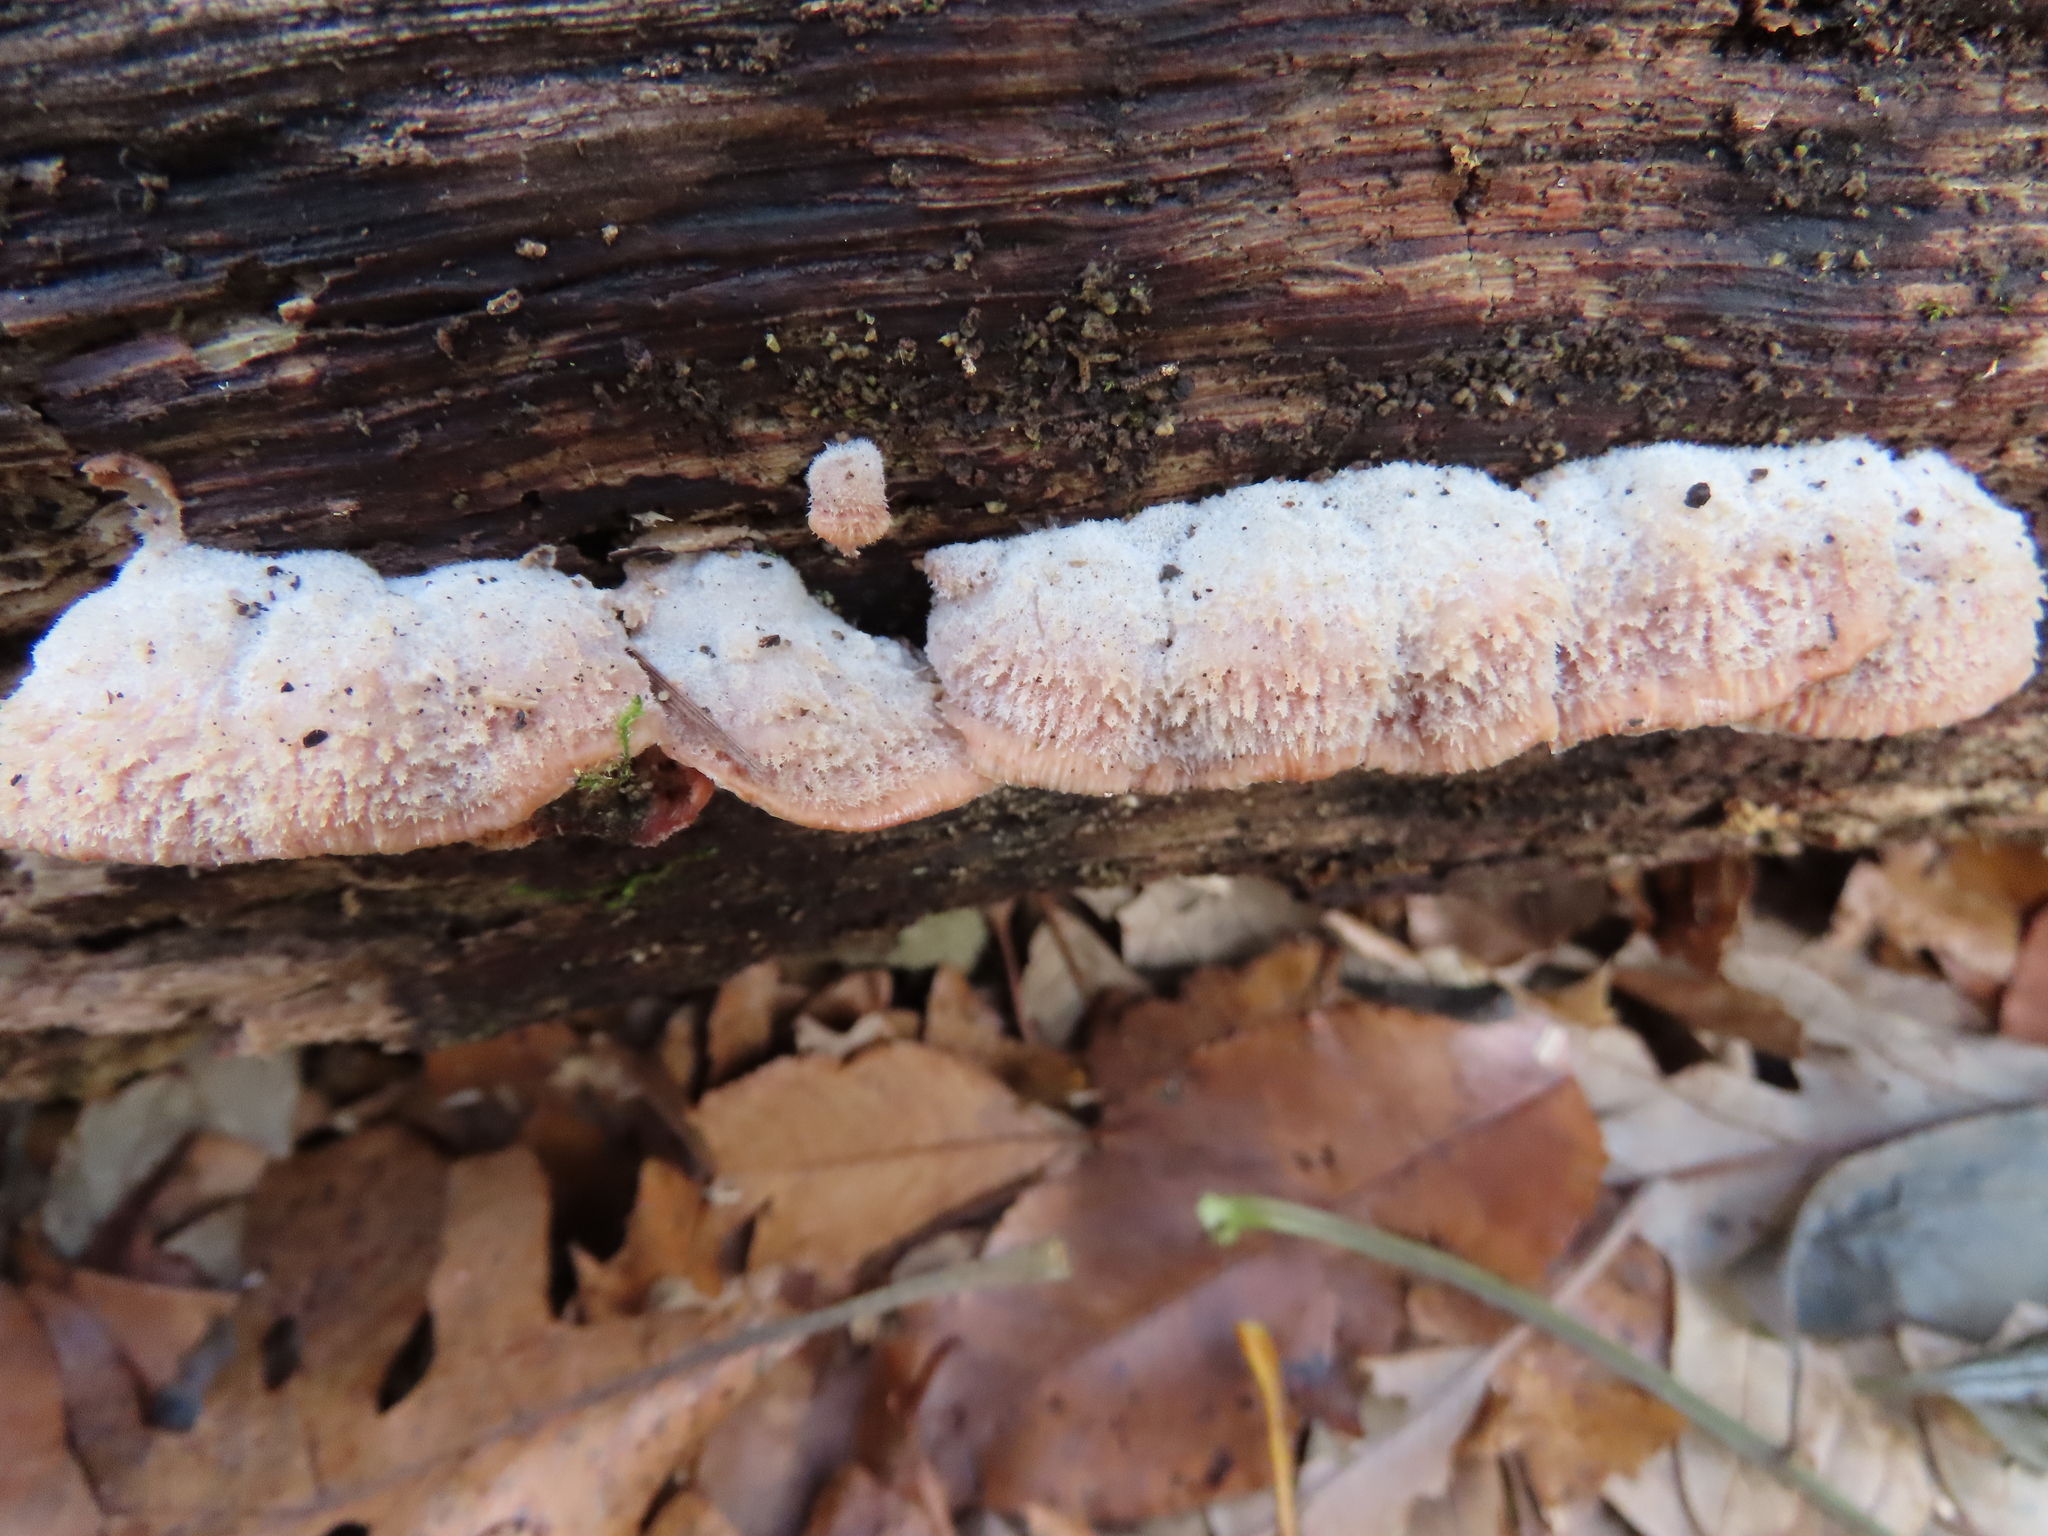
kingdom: Fungi
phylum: Basidiomycota
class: Agaricomycetes
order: Polyporales
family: Meruliaceae
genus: Phlebia
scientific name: Phlebia tremellosa
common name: Jelly rot
